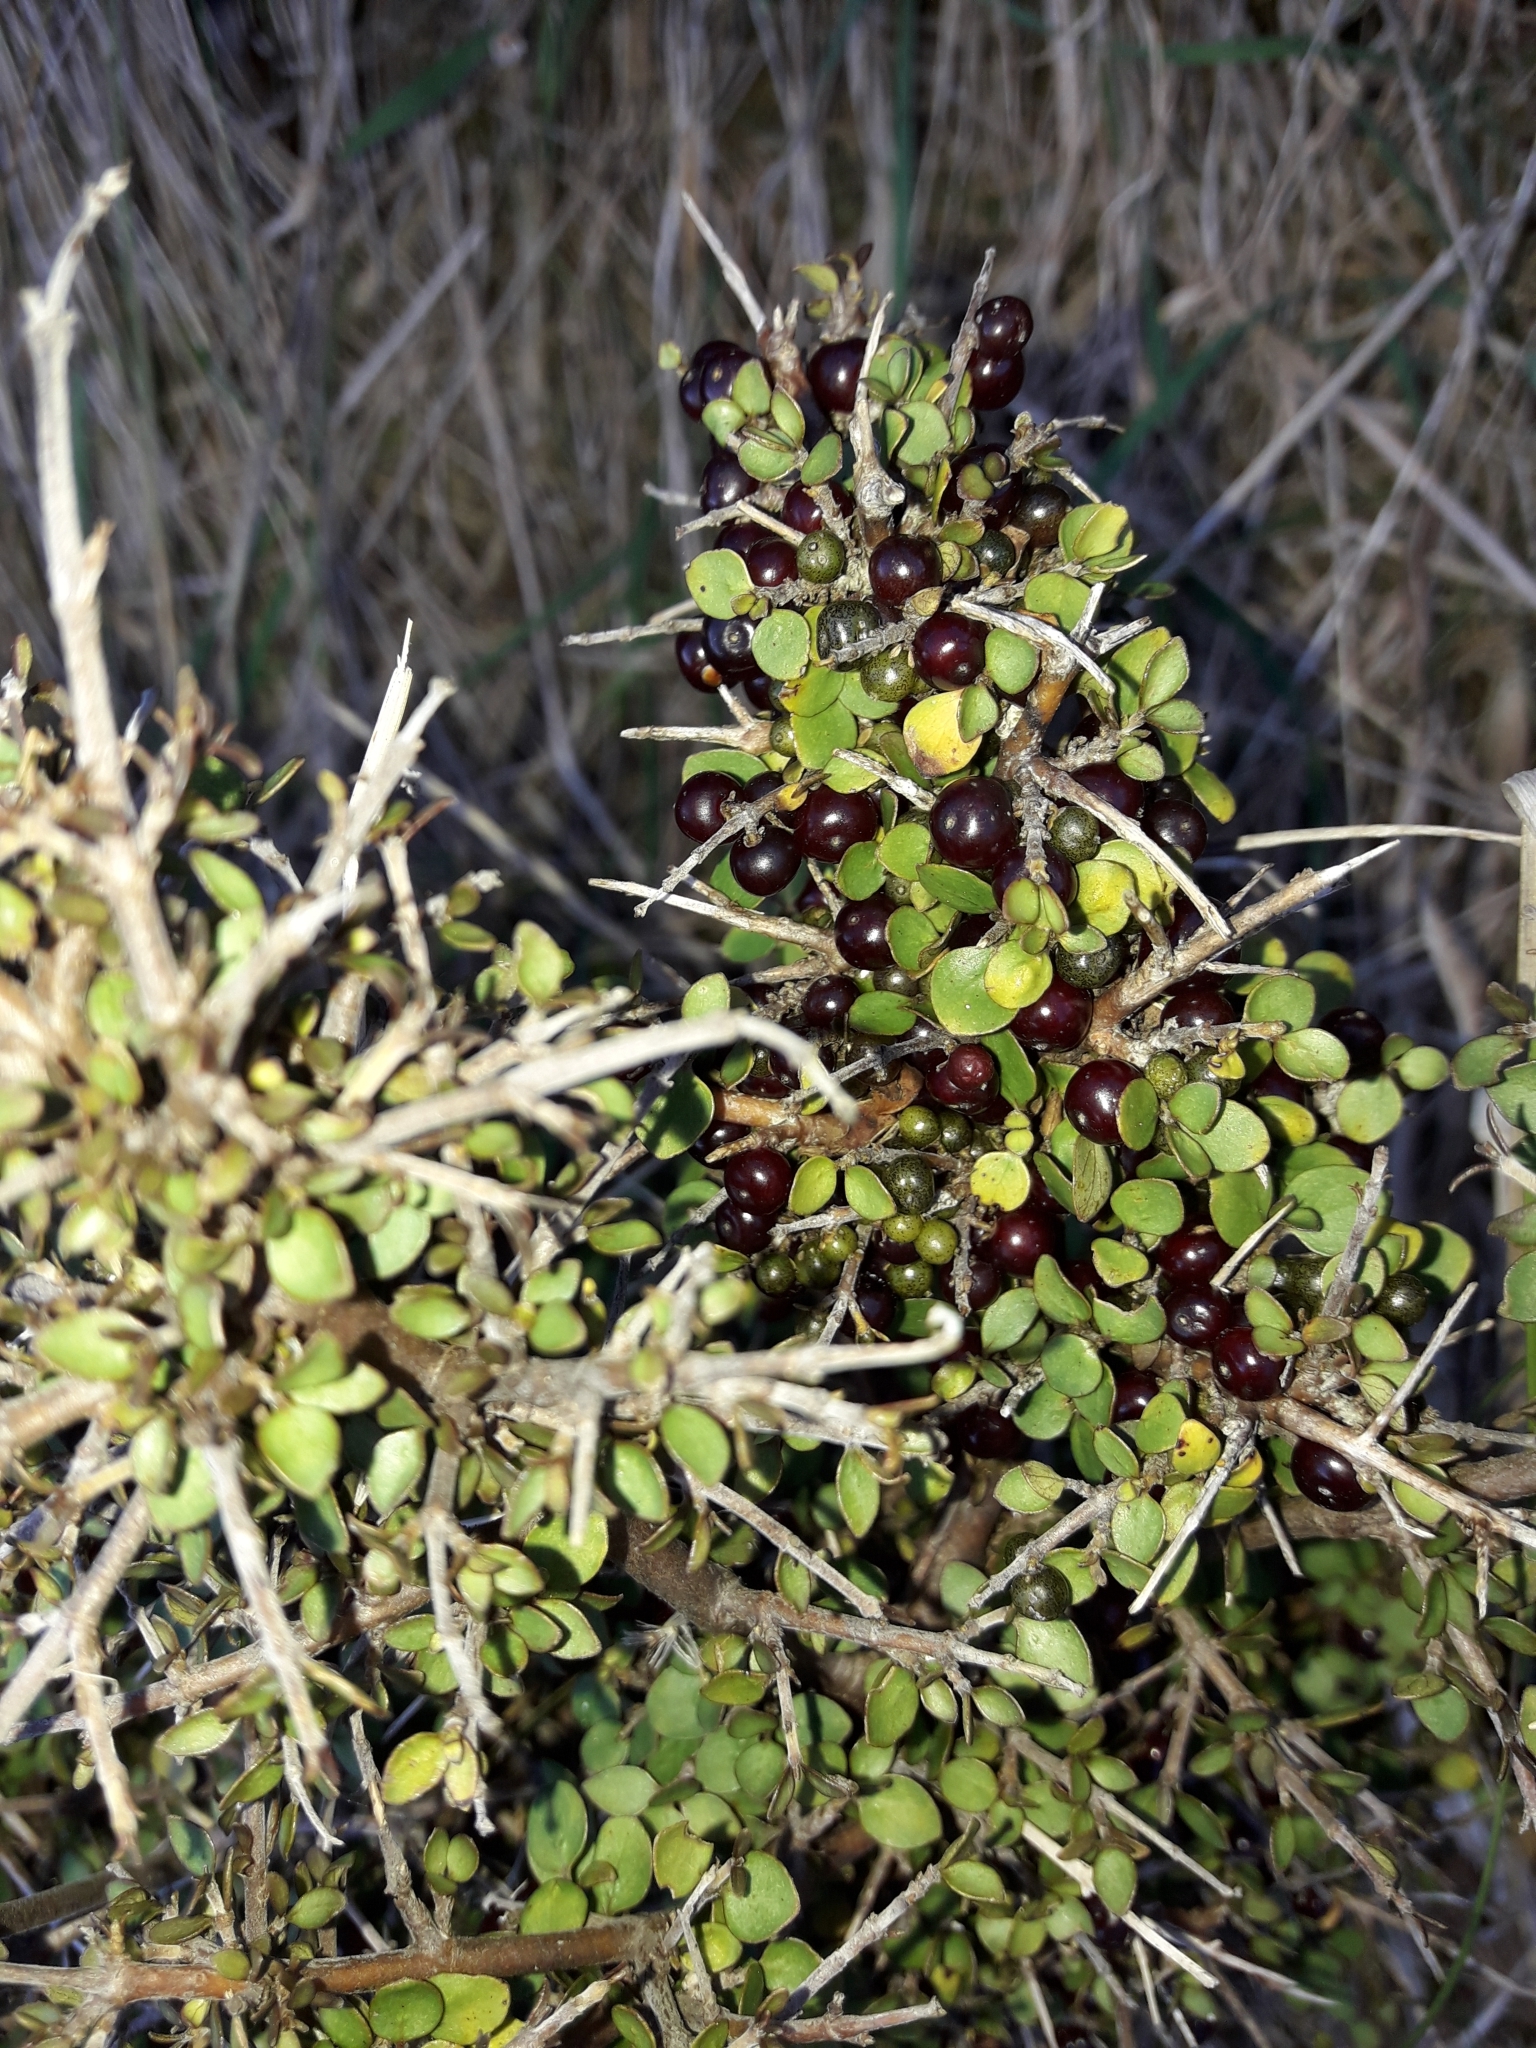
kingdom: Plantae
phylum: Tracheophyta
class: Magnoliopsida
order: Gentianales
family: Rubiaceae
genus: Coprosma
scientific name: Coprosma rhamnoides
